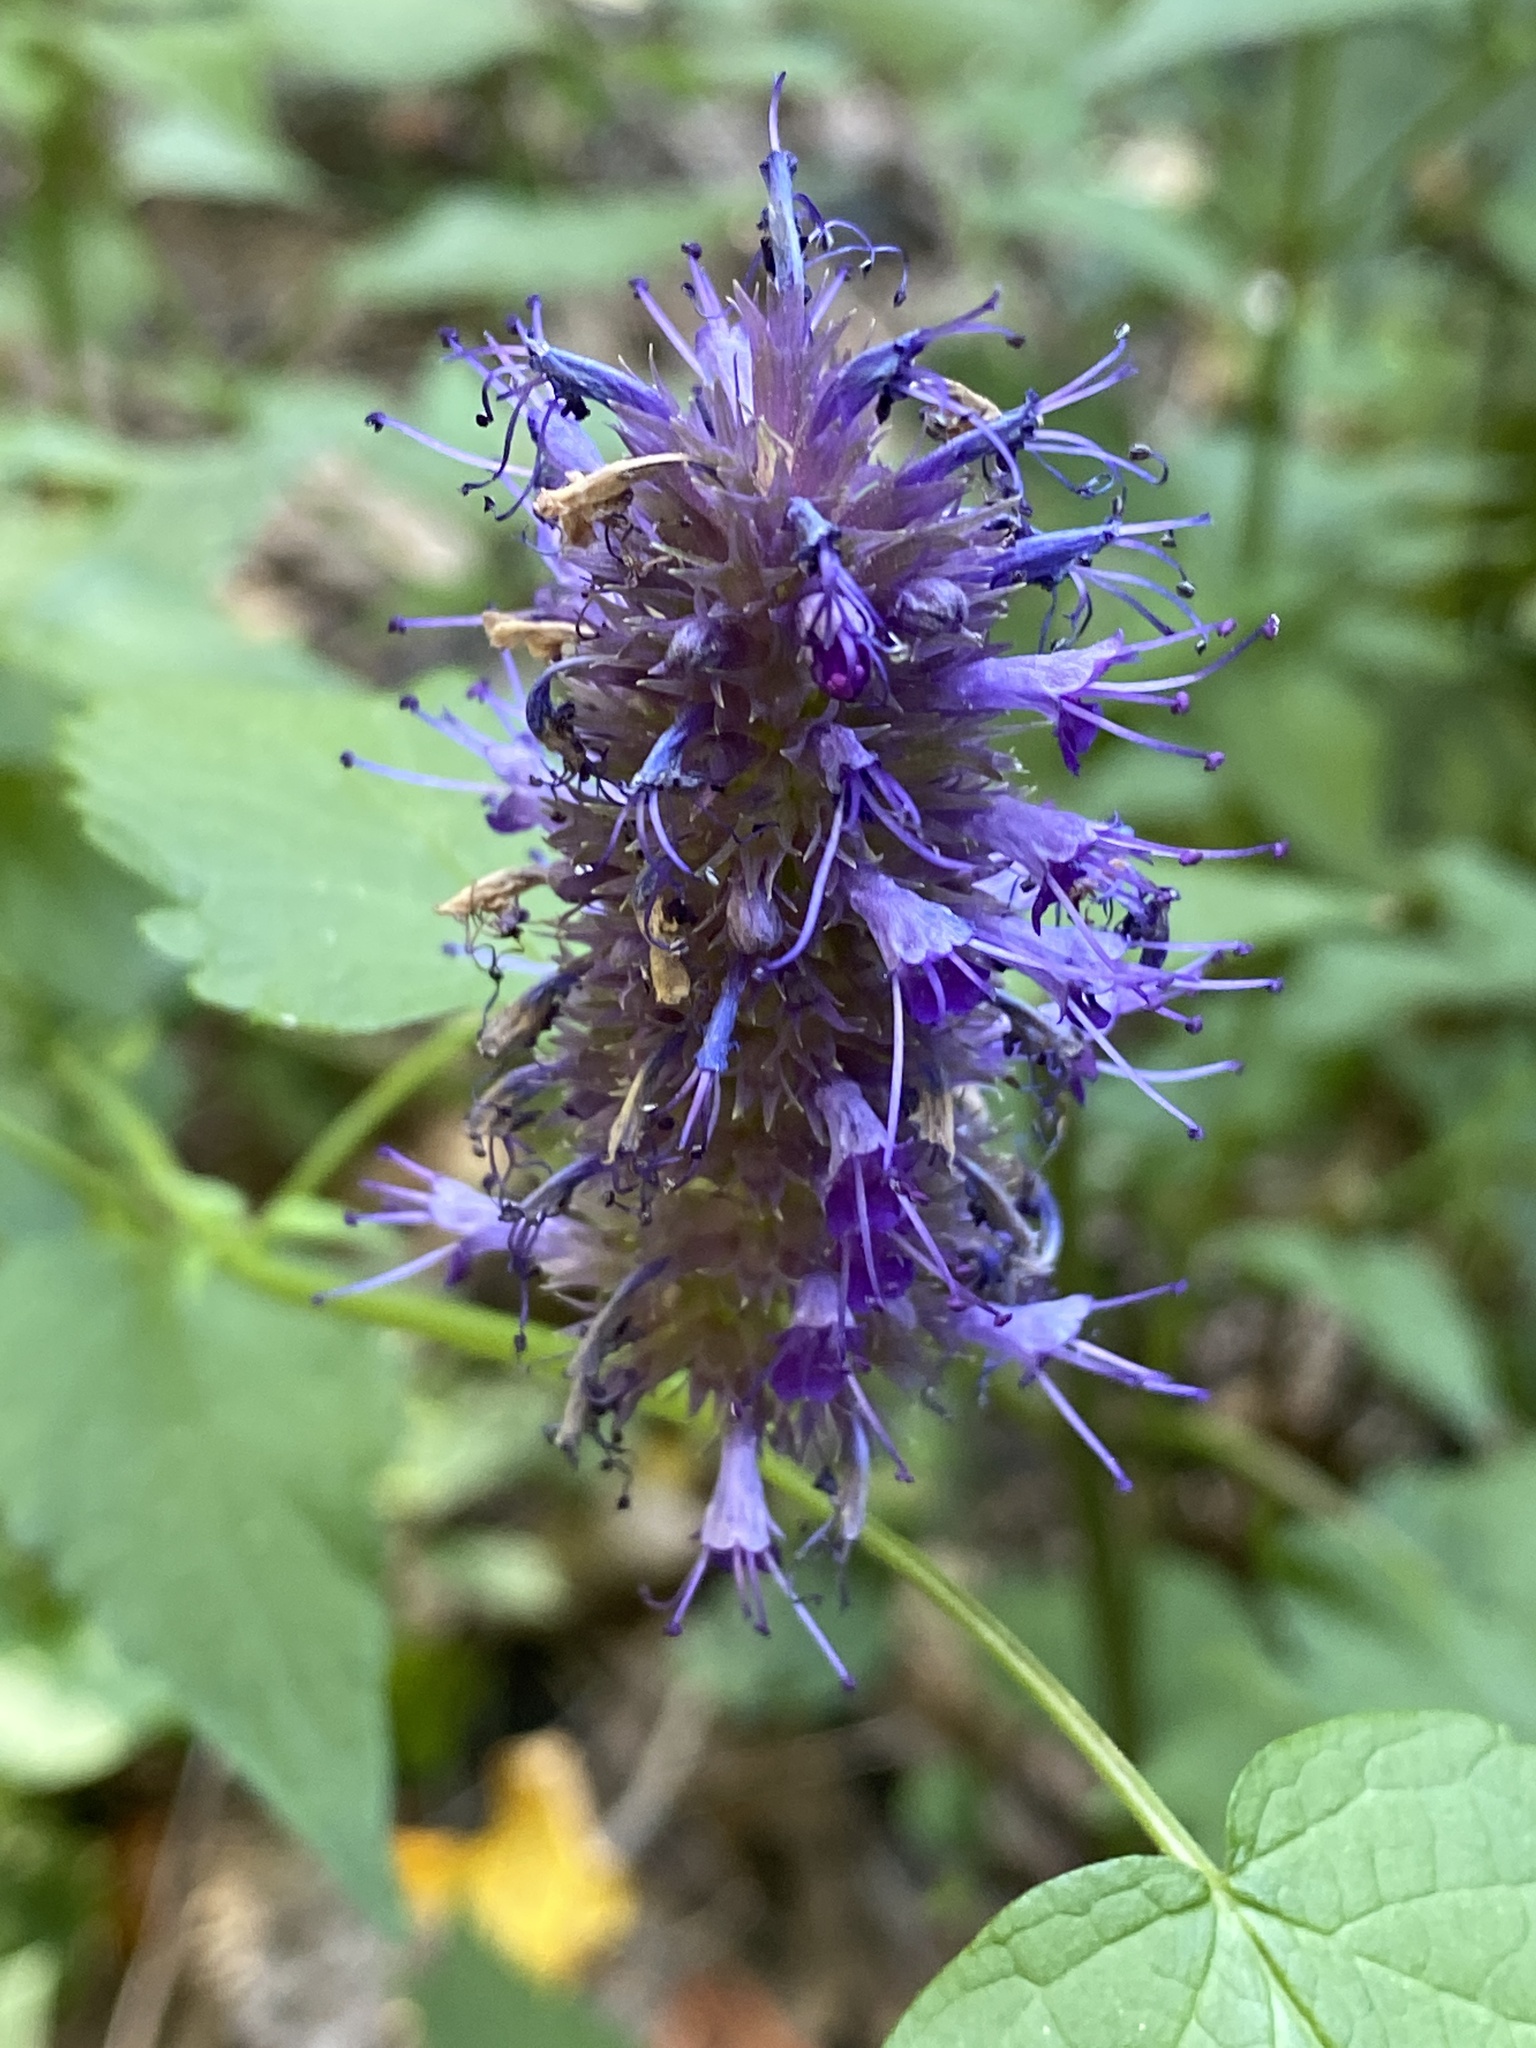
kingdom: Plantae
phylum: Tracheophyta
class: Magnoliopsida
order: Lamiales
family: Lamiaceae
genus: Agastache
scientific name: Agastache foeniculum
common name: Anise hyssop
